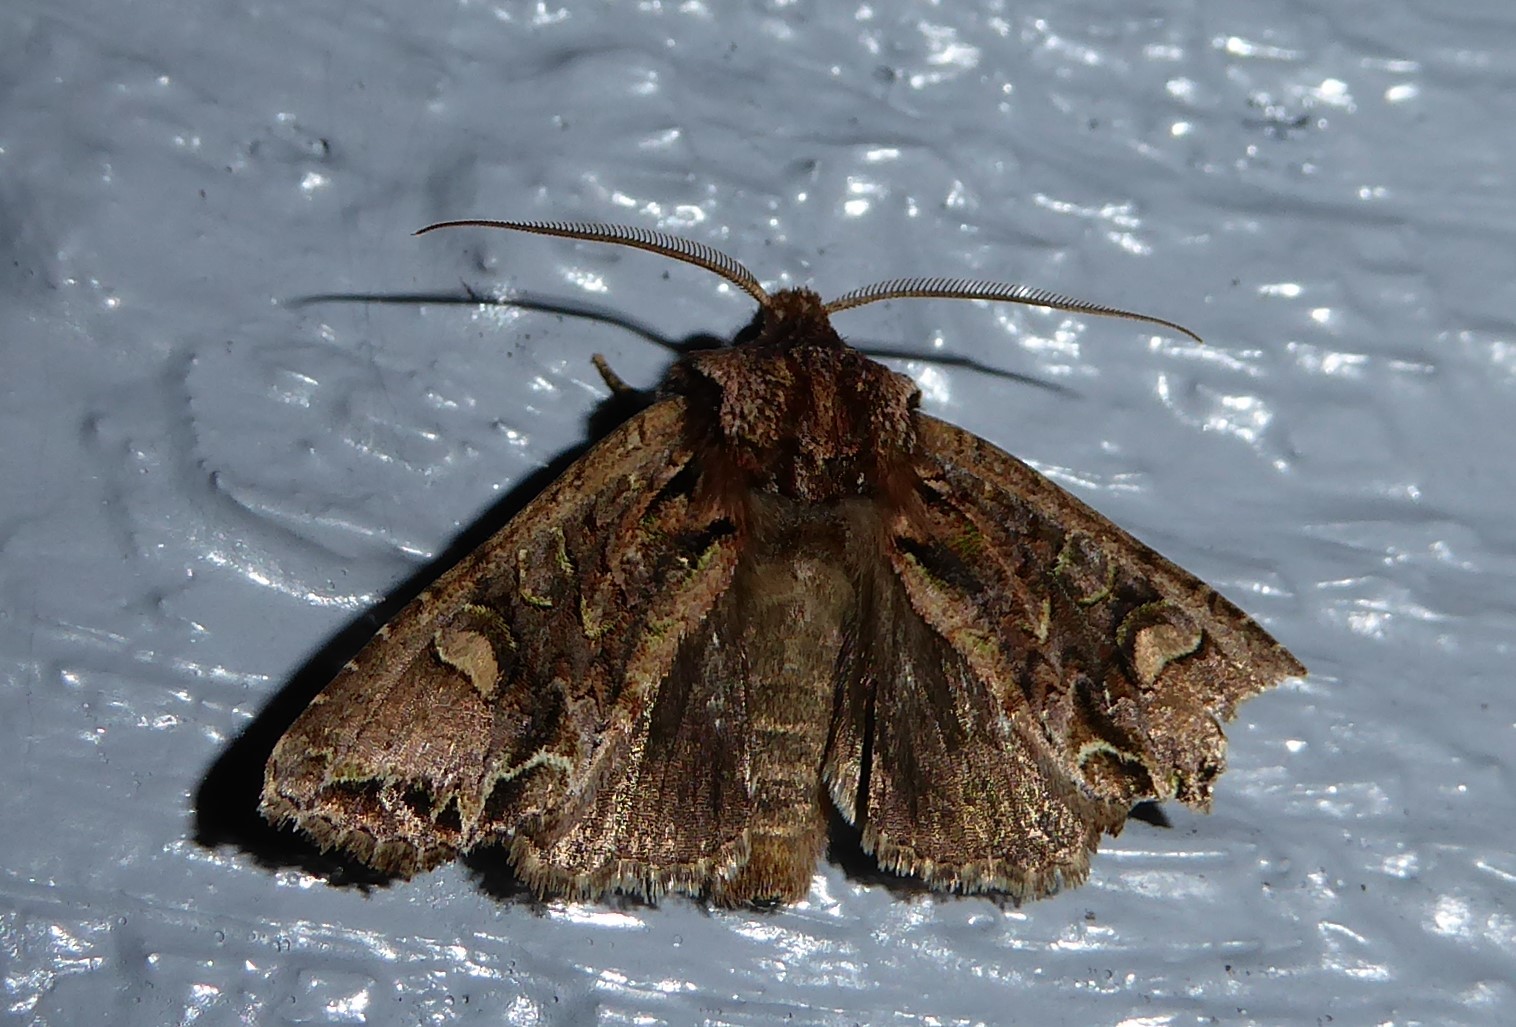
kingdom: Animalia
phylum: Arthropoda
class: Insecta
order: Lepidoptera
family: Noctuidae
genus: Ichneutica
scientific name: Ichneutica insignis
